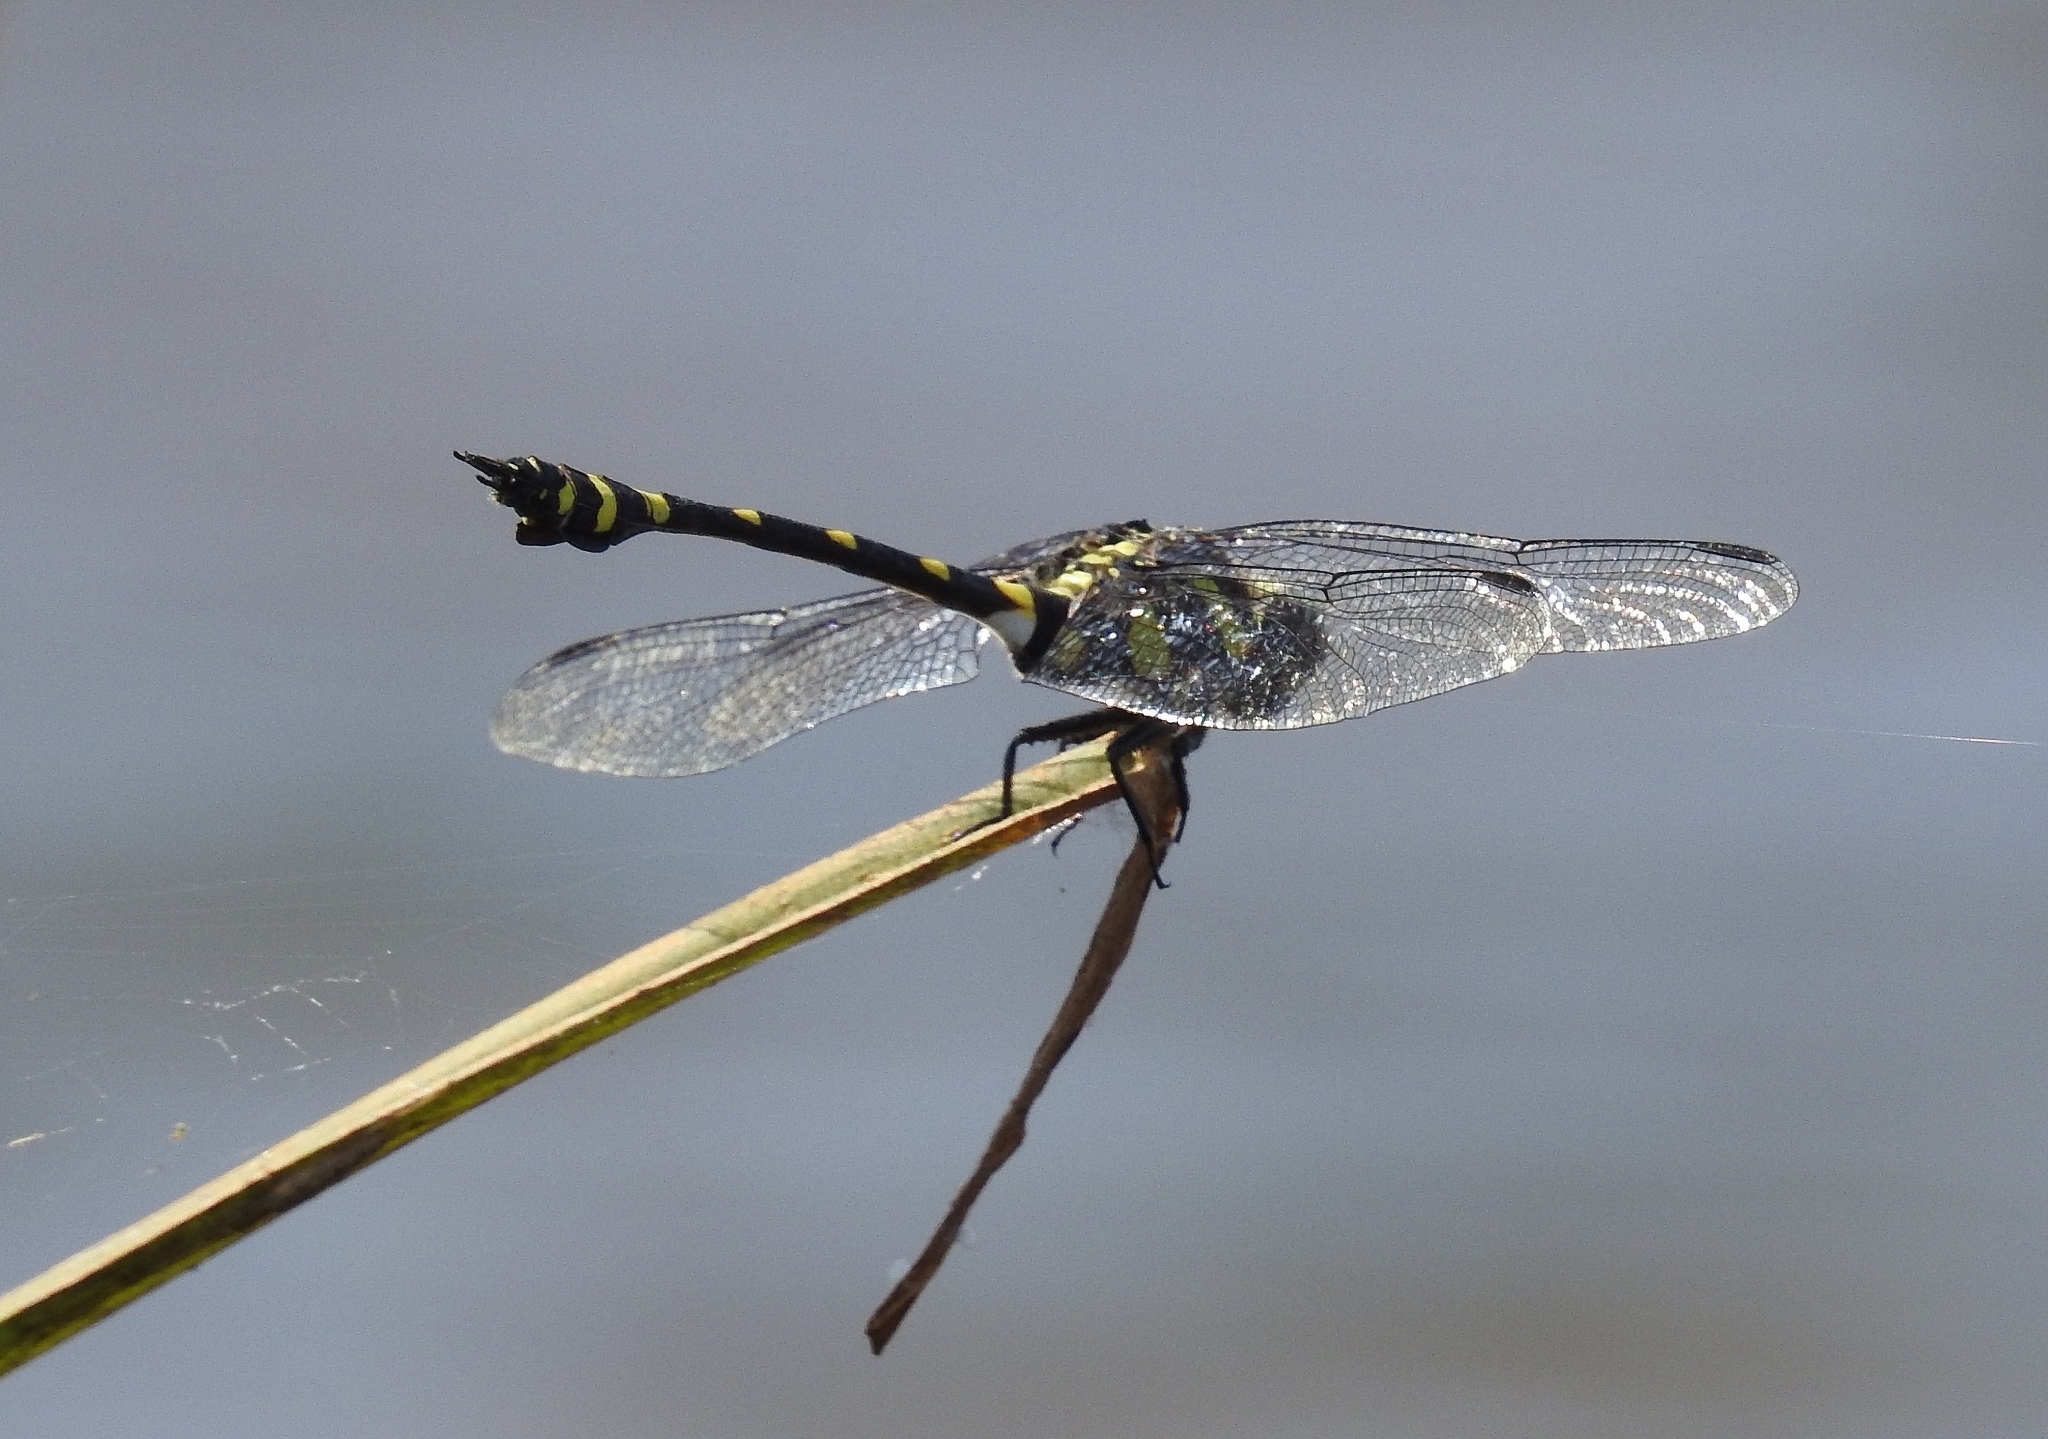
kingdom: Animalia
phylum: Arthropoda
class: Insecta
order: Odonata
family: Gomphidae
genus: Ictinogomphus
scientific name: Ictinogomphus rapax
